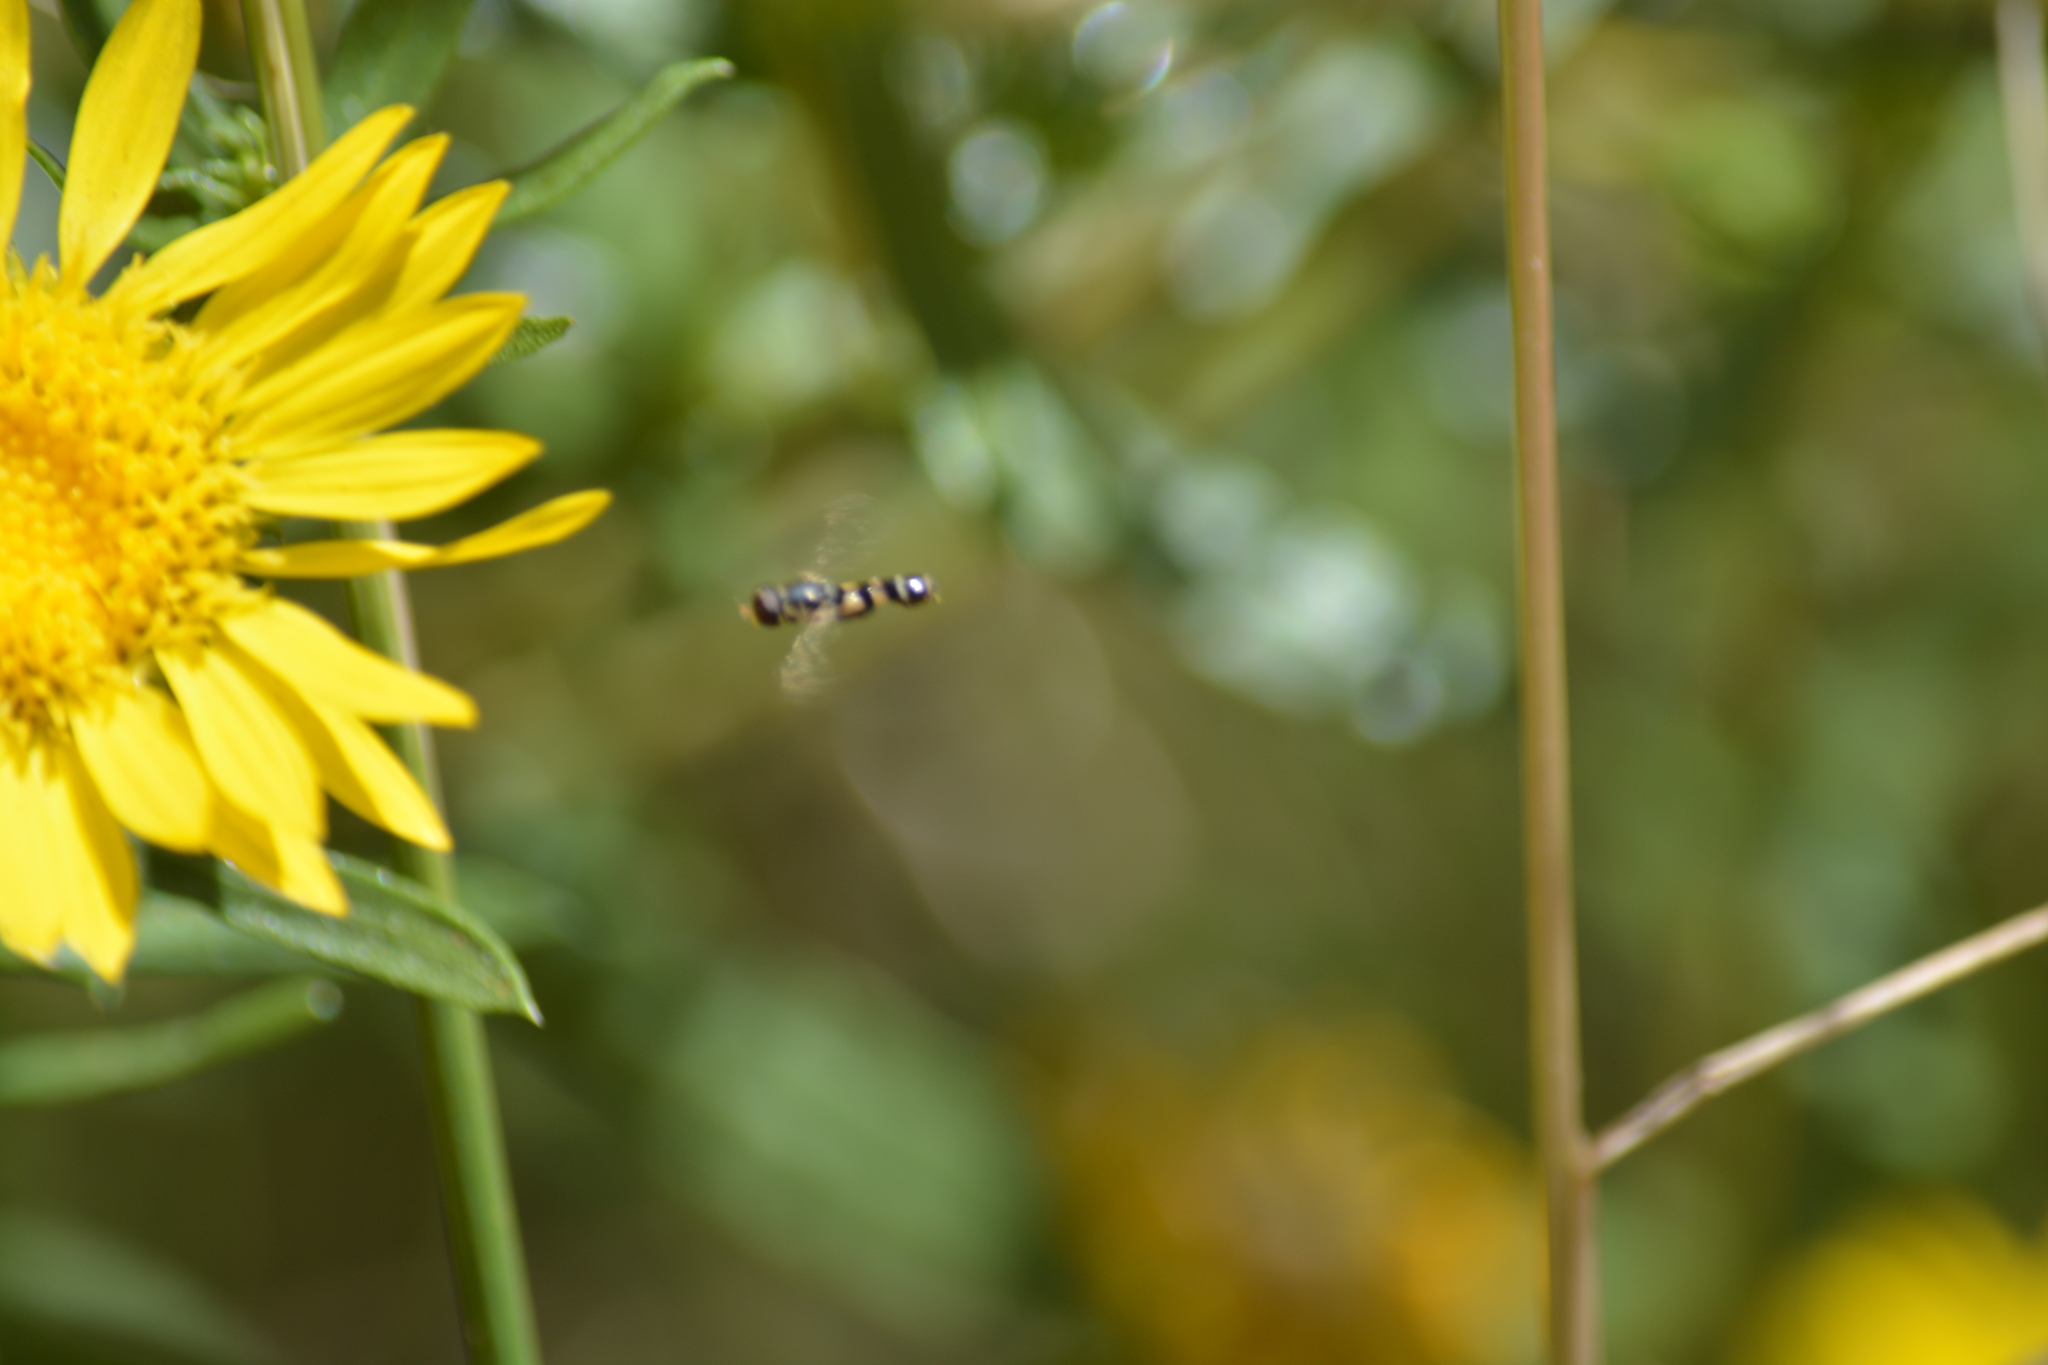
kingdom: Animalia
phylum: Arthropoda
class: Insecta
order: Diptera
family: Syrphidae
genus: Syritta
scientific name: Syritta pipiens
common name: Hover fly
